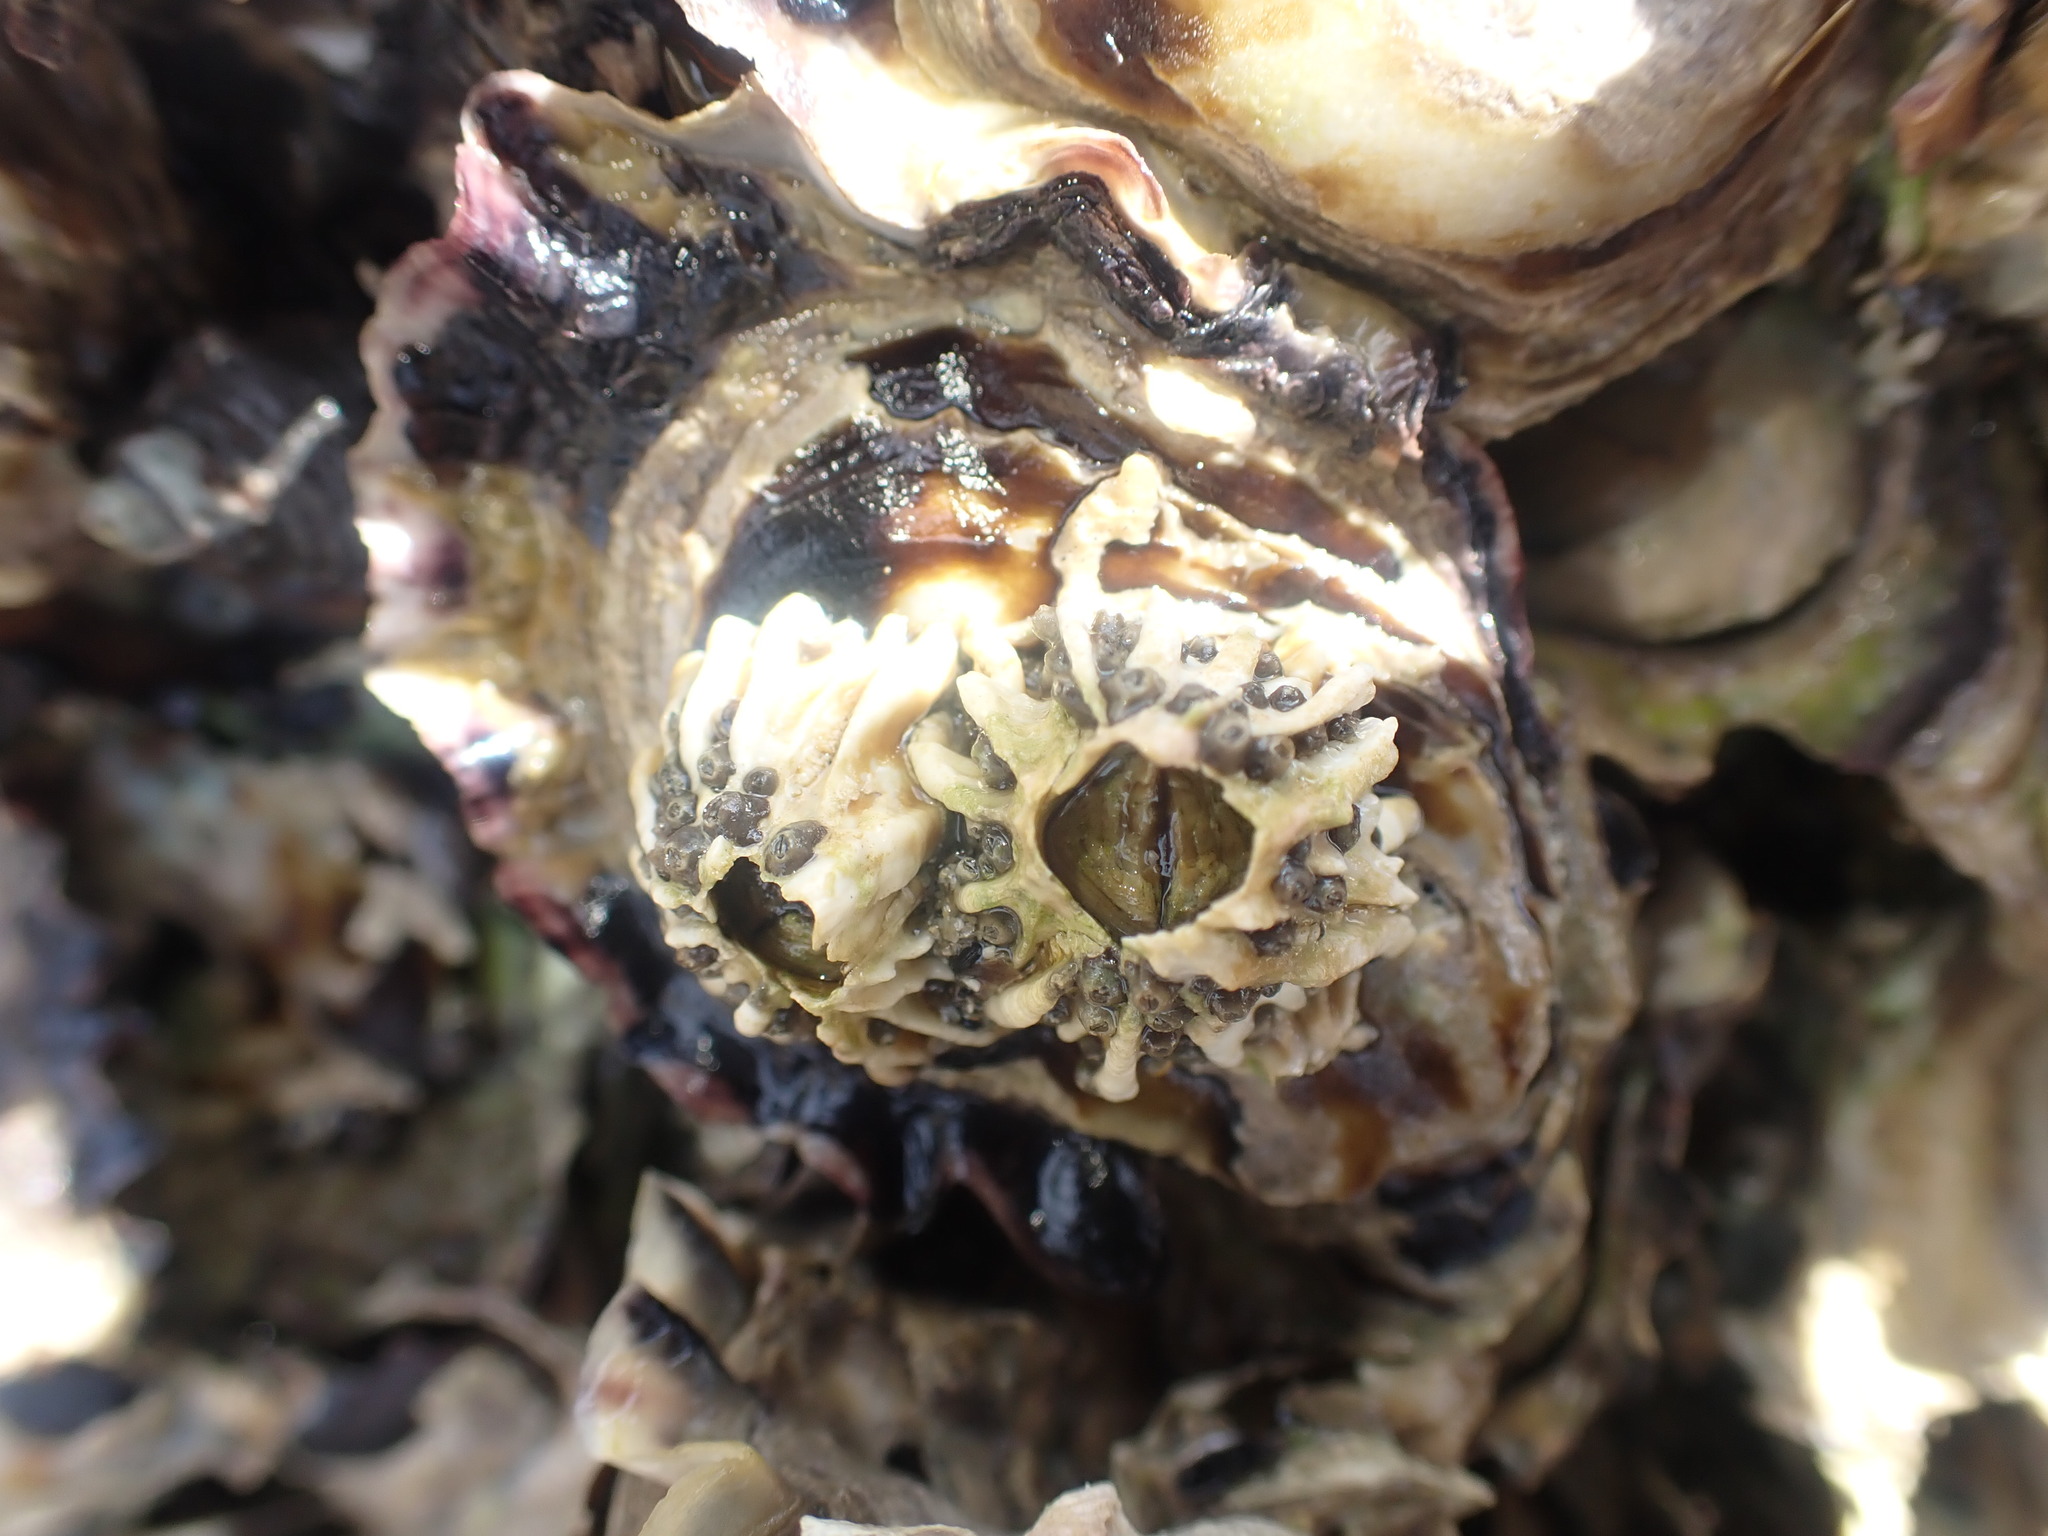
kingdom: Animalia
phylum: Arthropoda
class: Maxillopoda
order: Sessilia
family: Tetraclitidae
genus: Epopella
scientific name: Epopella plicata
